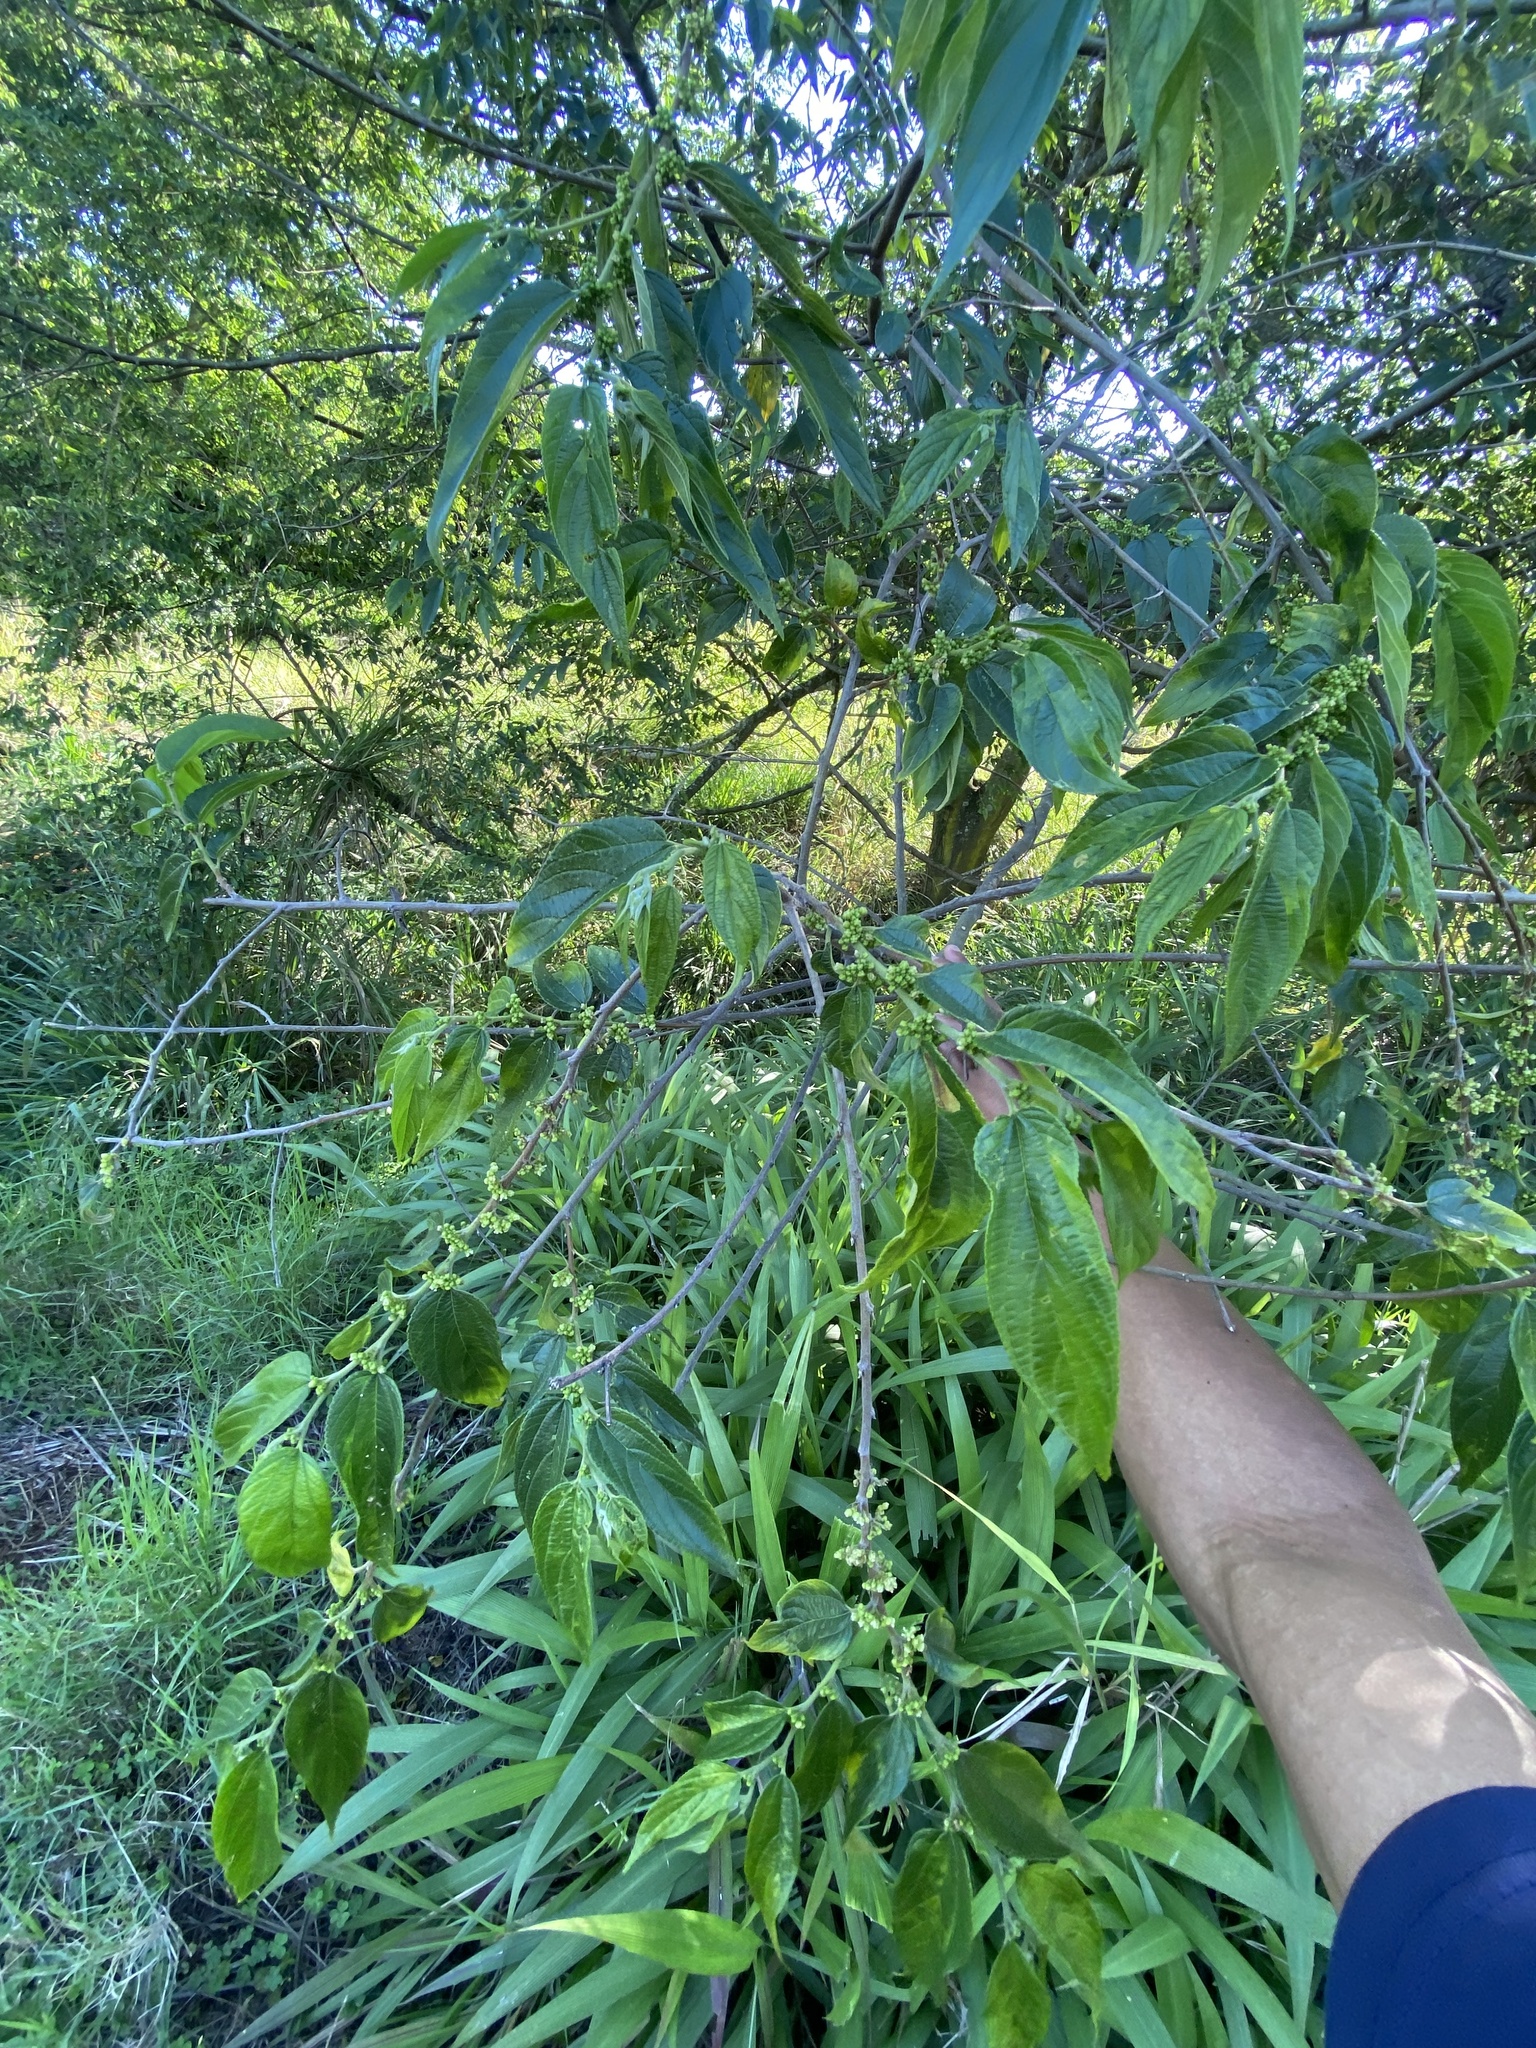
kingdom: Plantae
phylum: Tracheophyta
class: Magnoliopsida
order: Rosales
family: Cannabaceae
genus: Trema
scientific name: Trema orientale
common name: Indian charcoal tree
